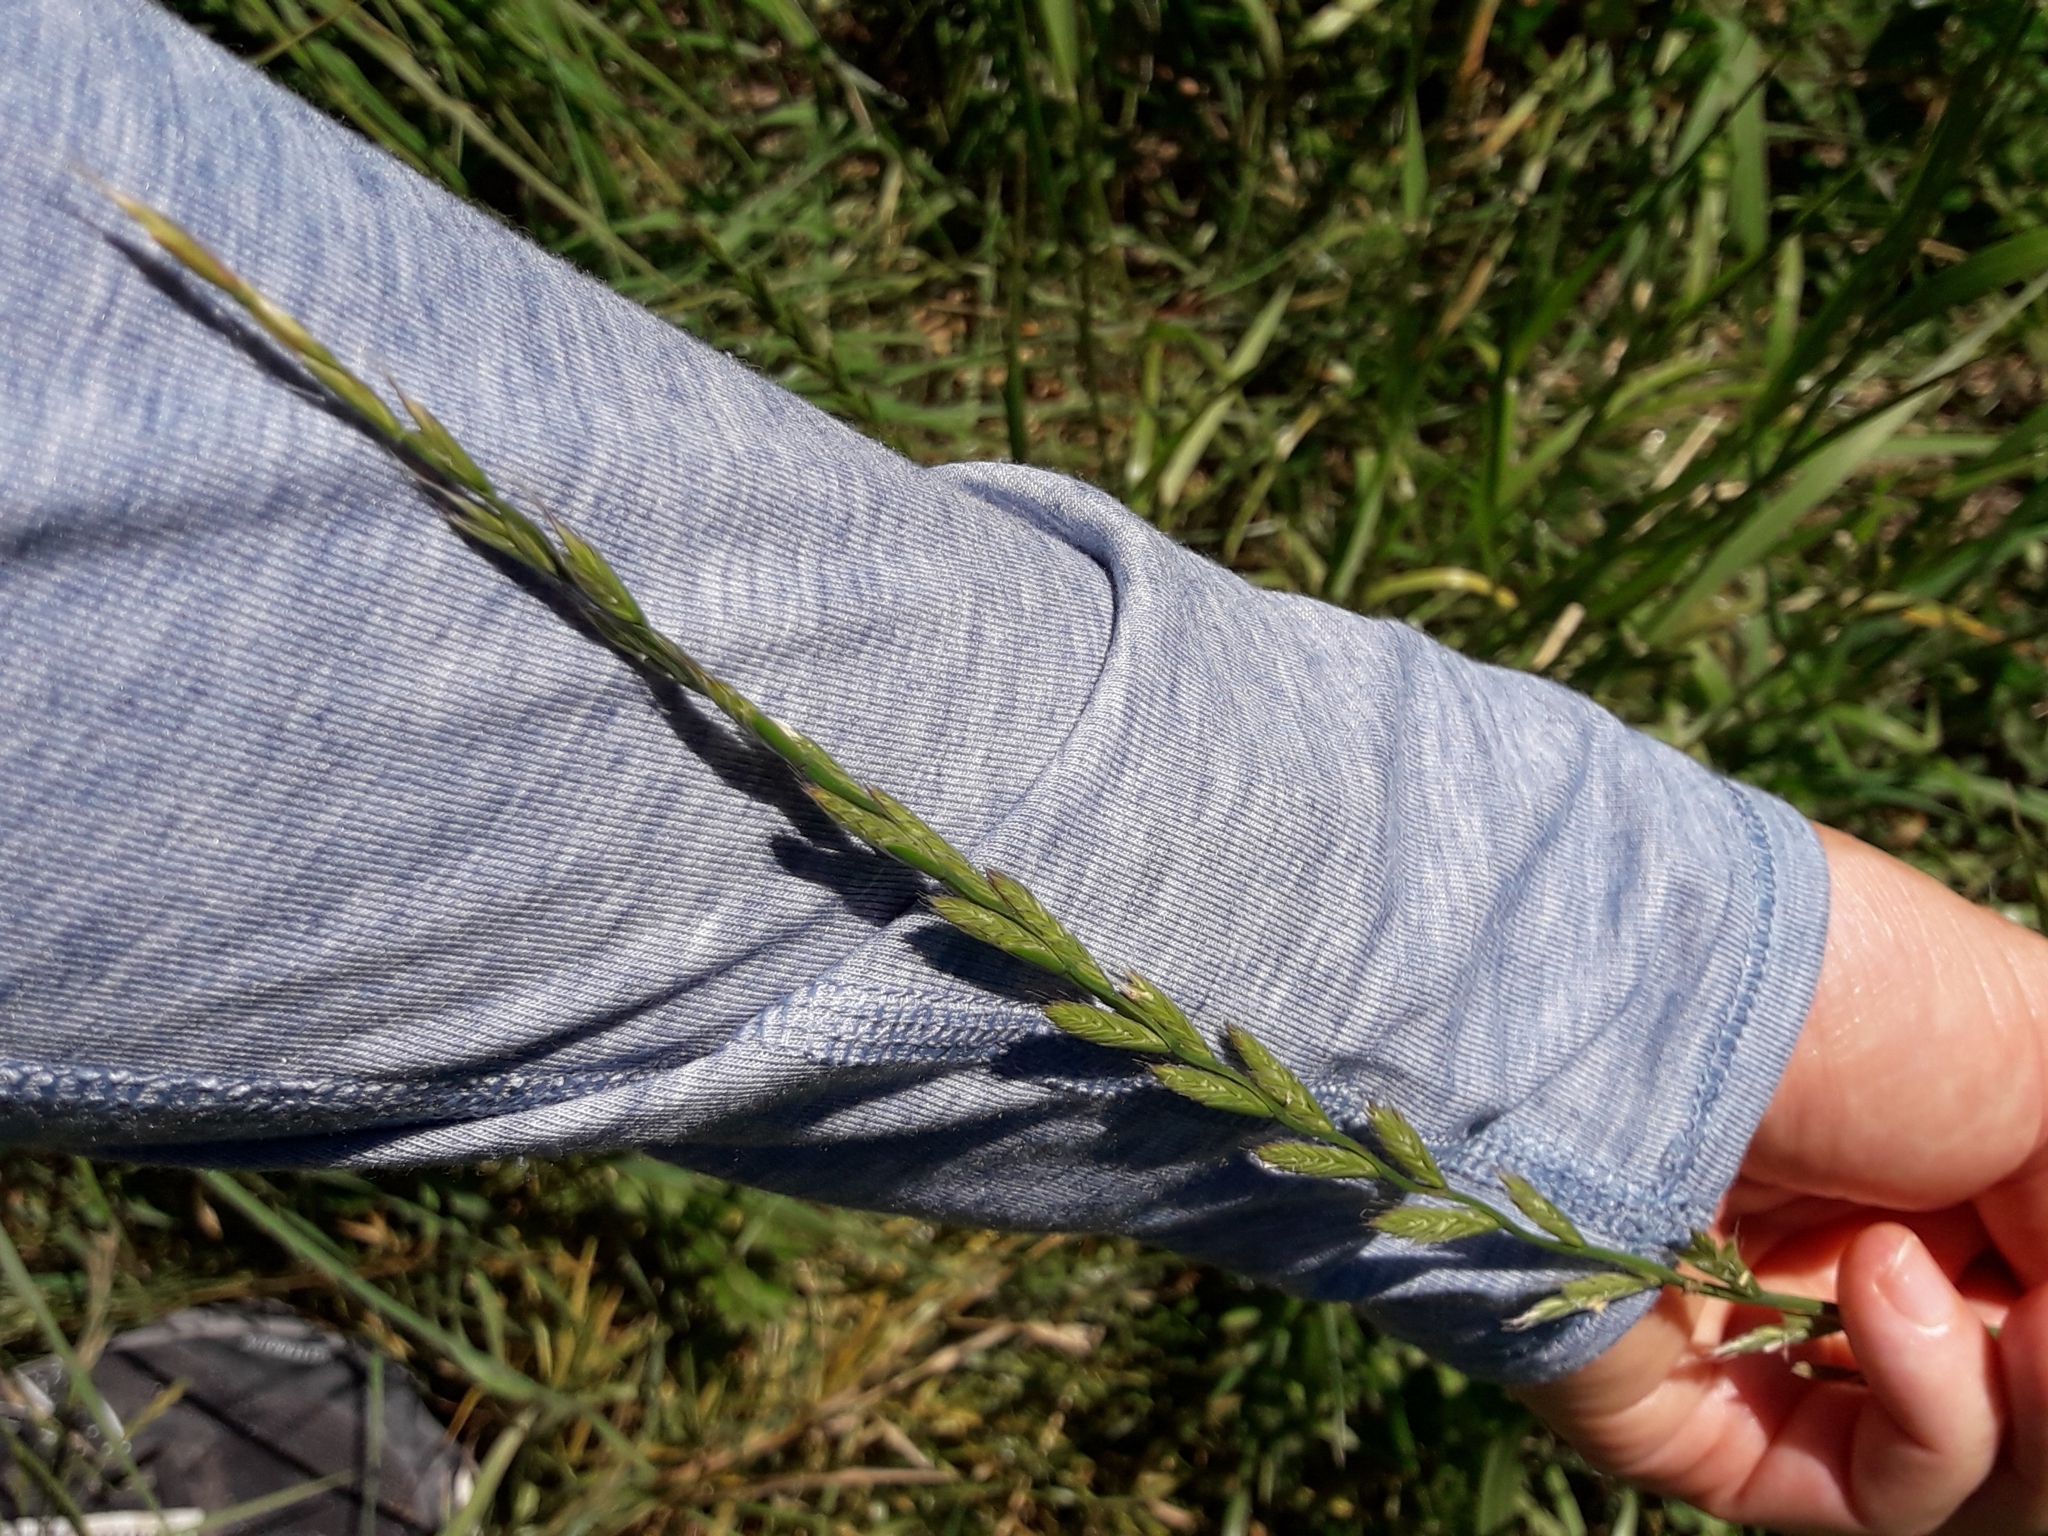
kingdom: Plantae
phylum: Tracheophyta
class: Liliopsida
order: Poales
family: Poaceae
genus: Lolium
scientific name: Lolium multiflorum
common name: Annual ryegrass
